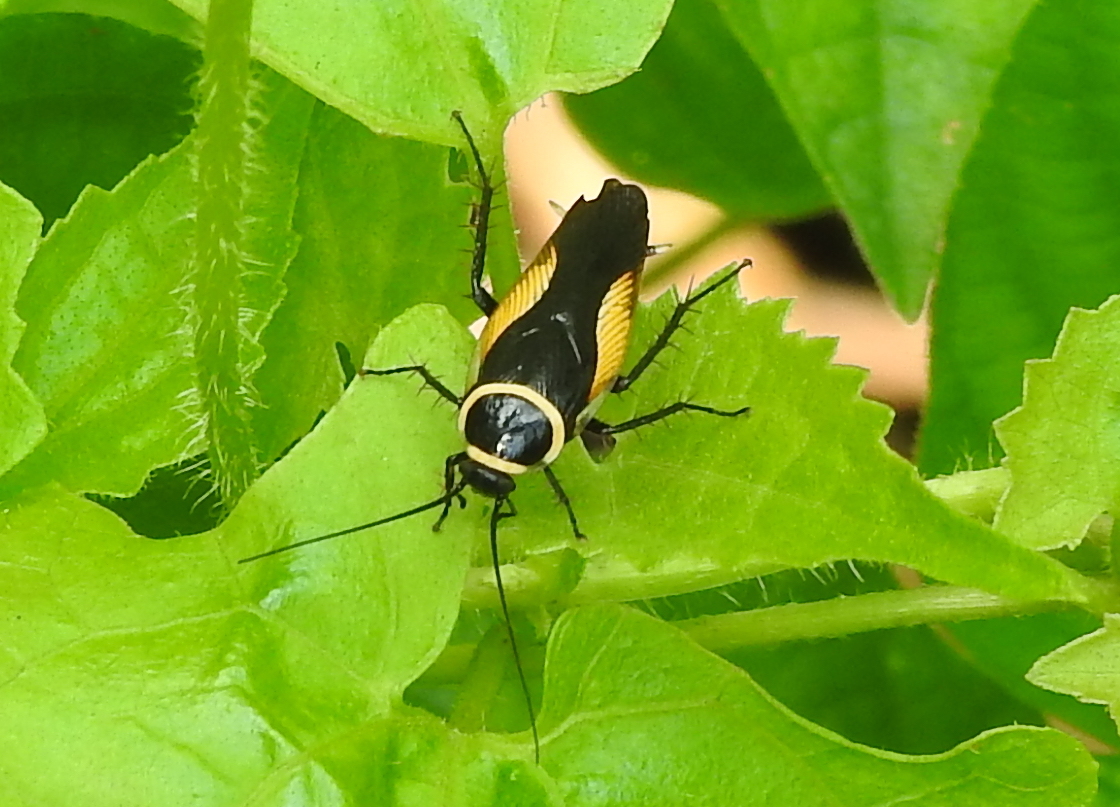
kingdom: Animalia
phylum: Arthropoda
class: Insecta
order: Blattodea
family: Ectobiidae
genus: Hemithyrsocera
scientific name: Hemithyrsocera vittata
